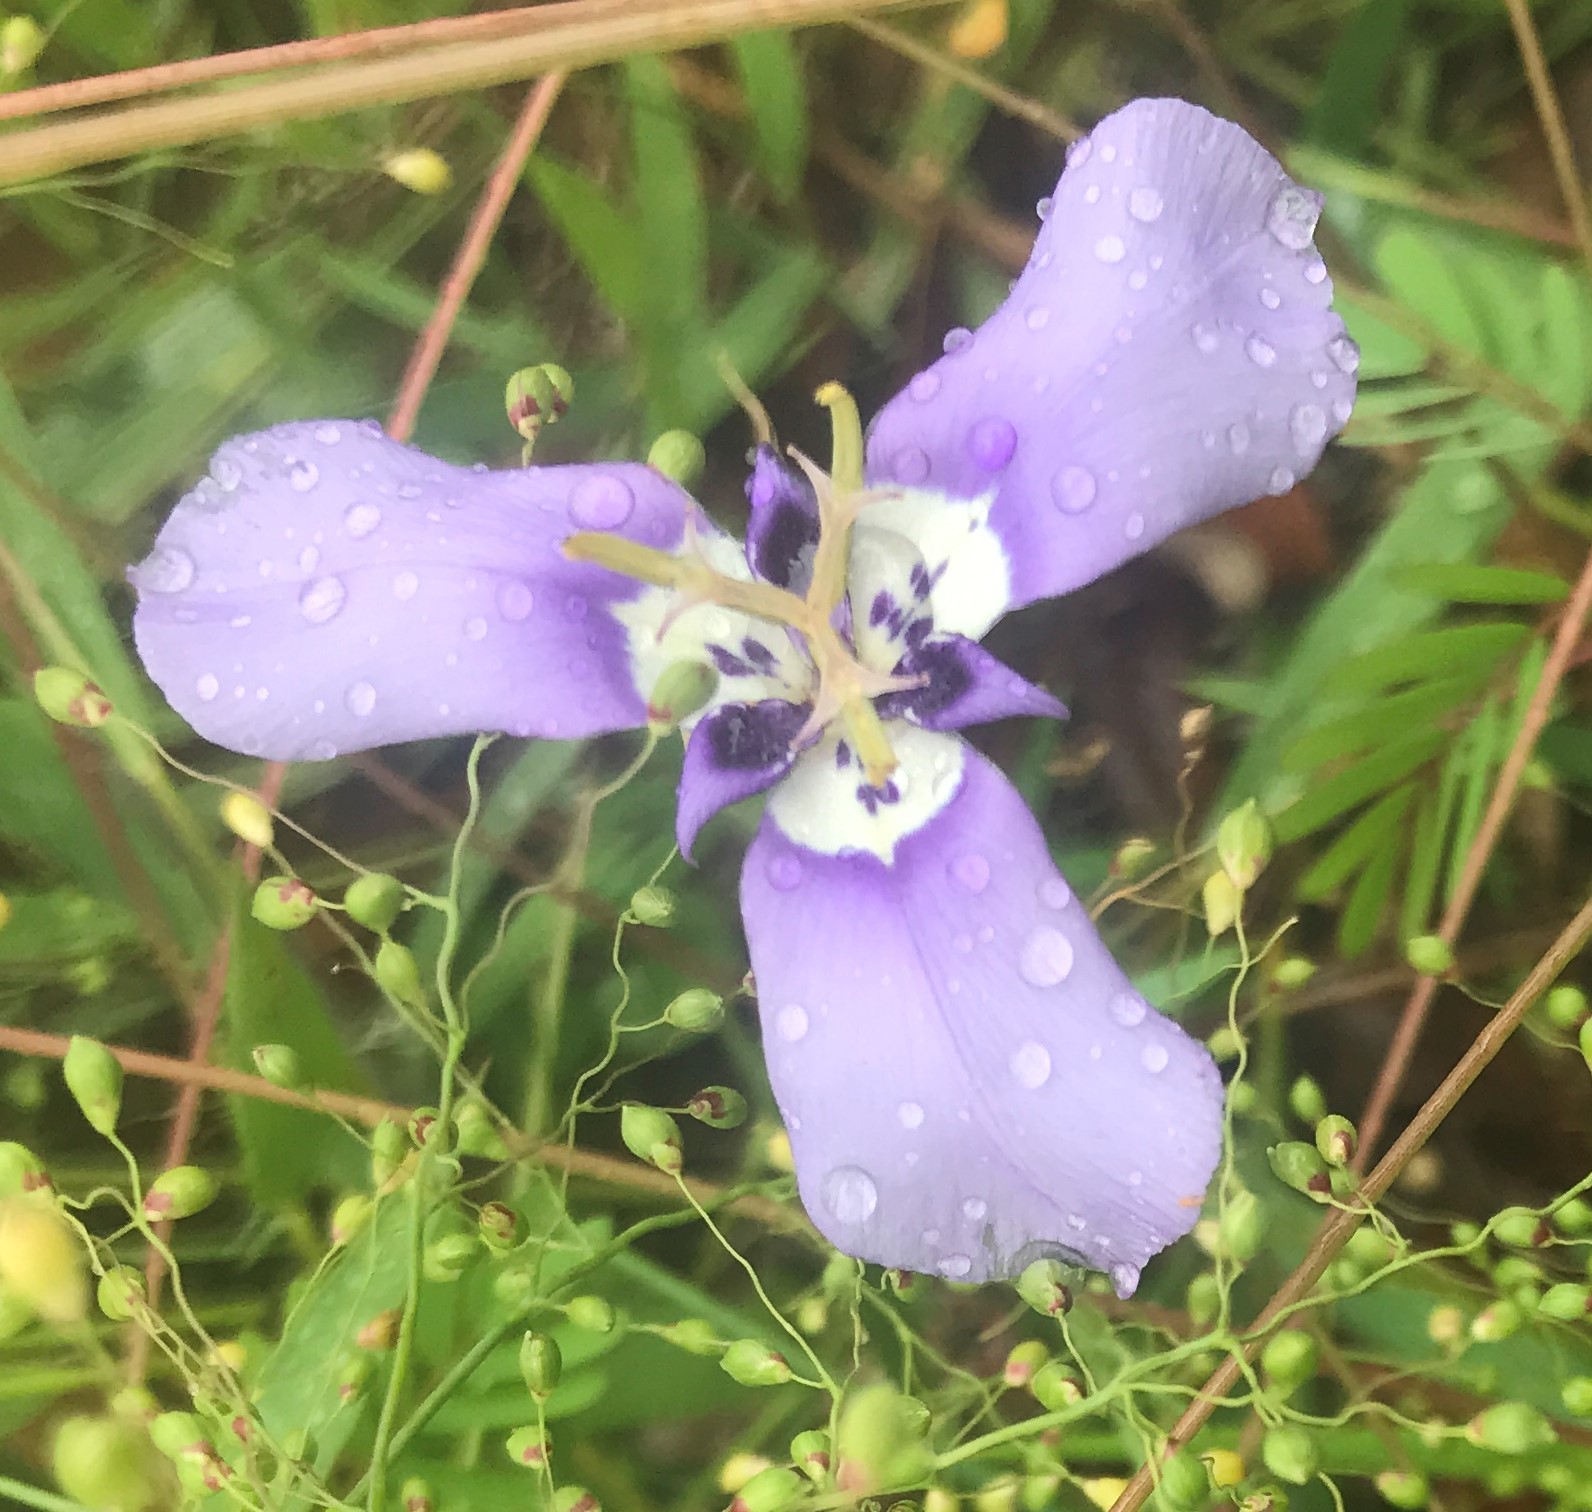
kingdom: Plantae
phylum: Tracheophyta
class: Liliopsida
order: Asparagales
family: Iridaceae
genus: Herbertia
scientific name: Herbertia lahue
